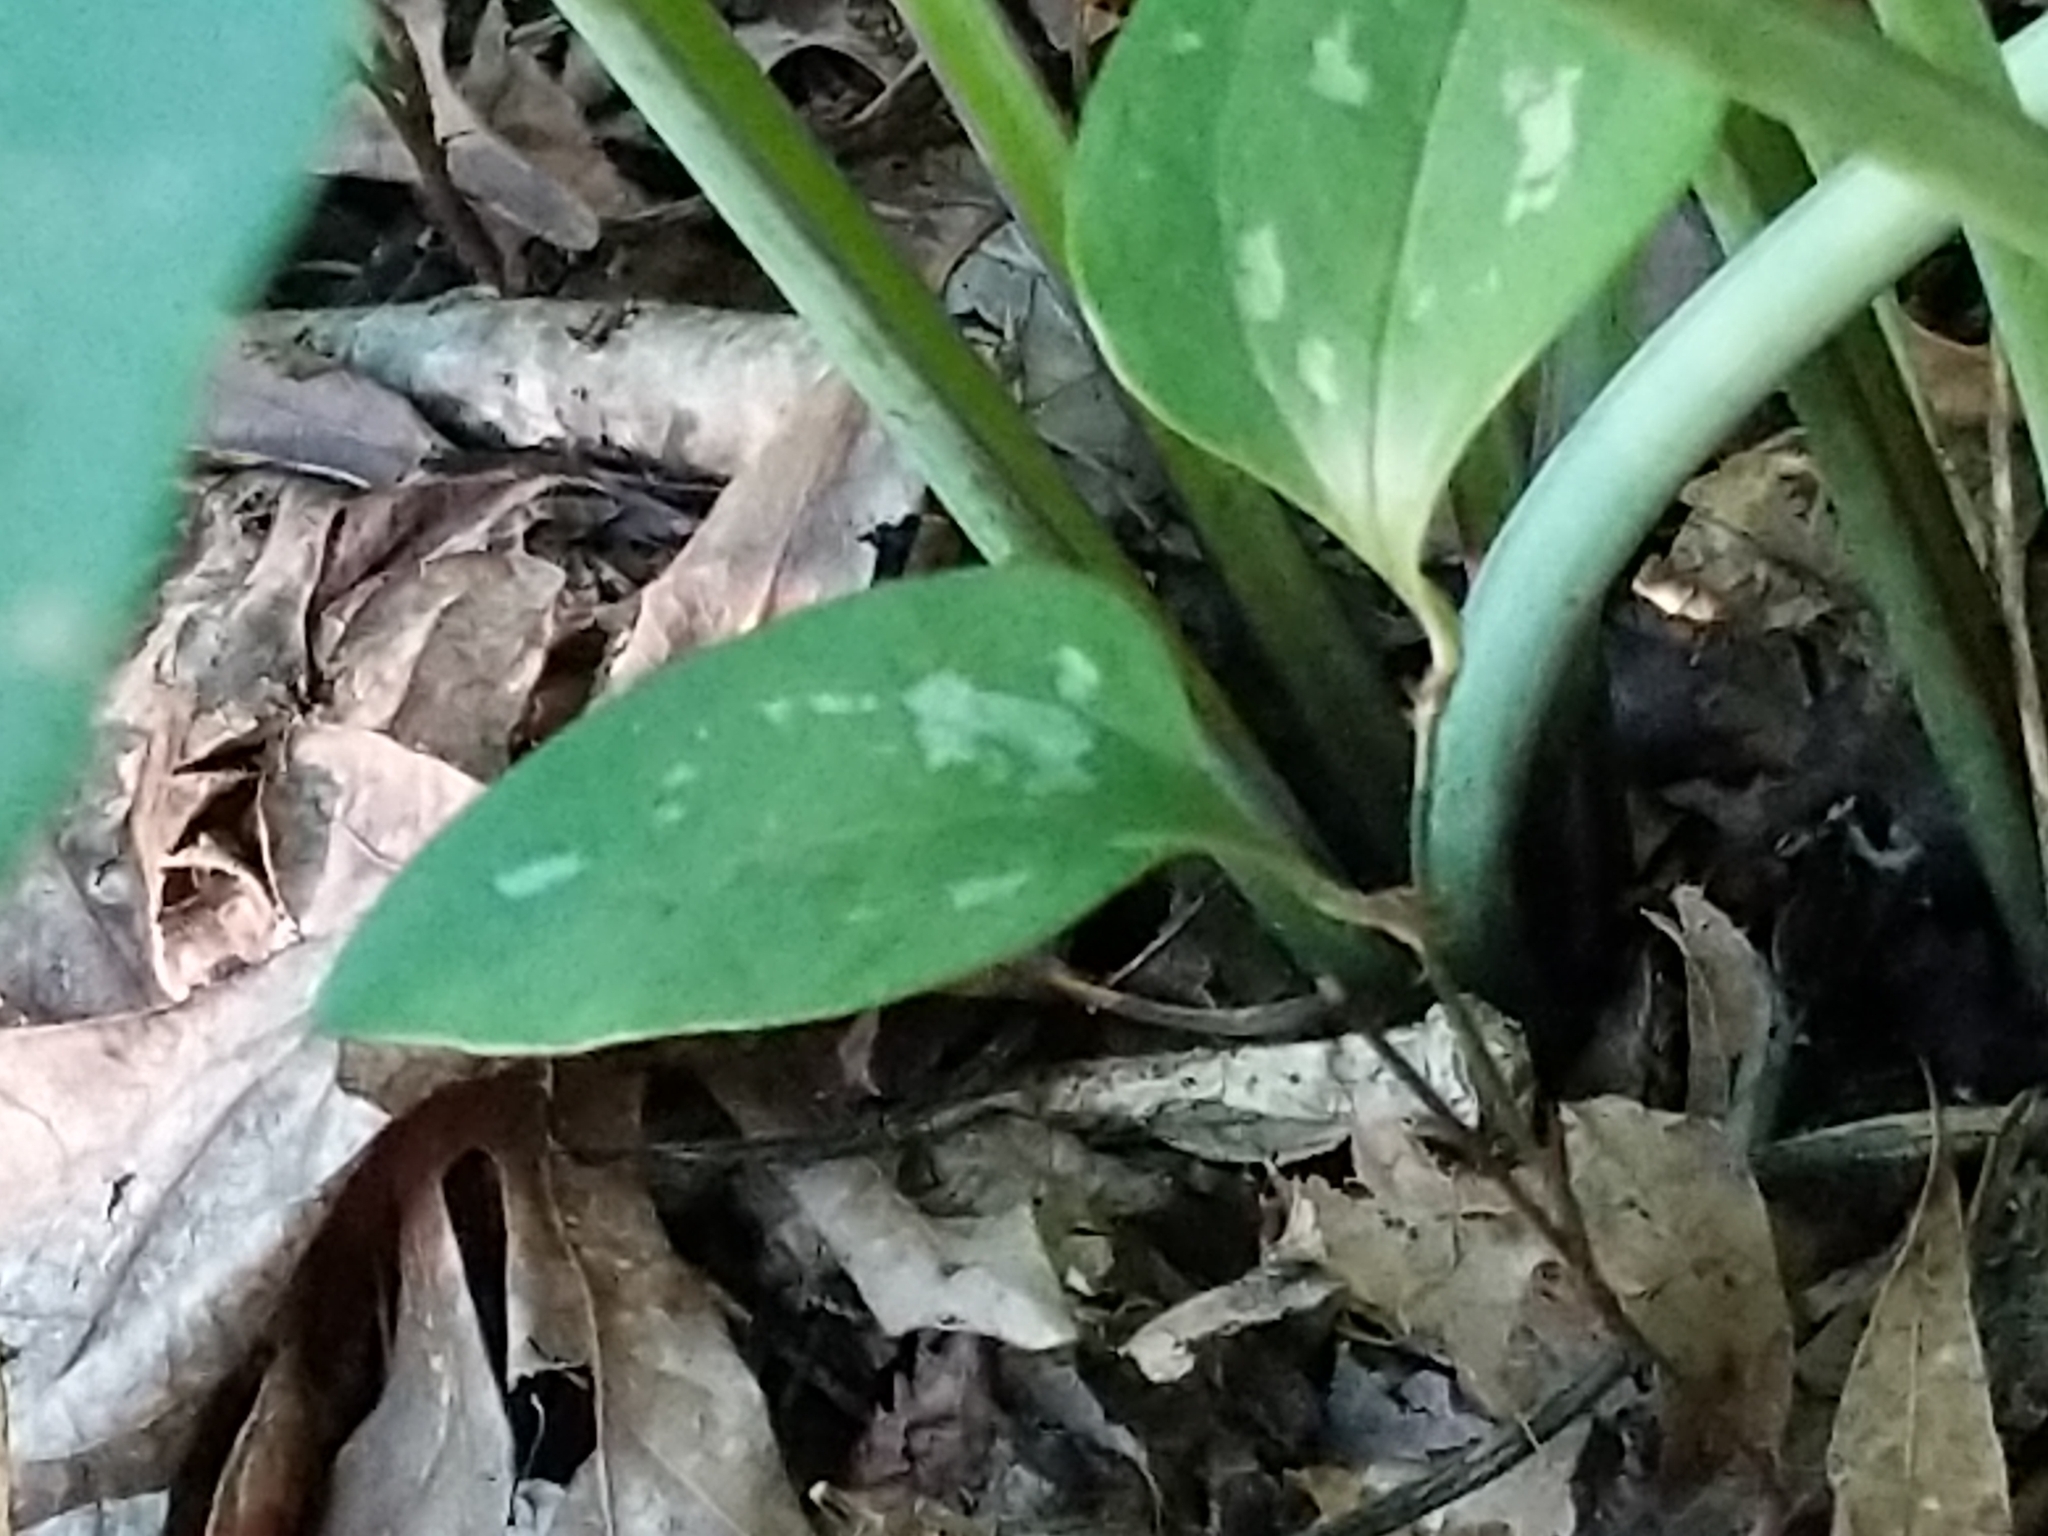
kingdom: Plantae
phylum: Tracheophyta
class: Liliopsida
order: Liliales
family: Smilacaceae
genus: Smilax
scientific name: Smilax glauca
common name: Cat greenbrier
